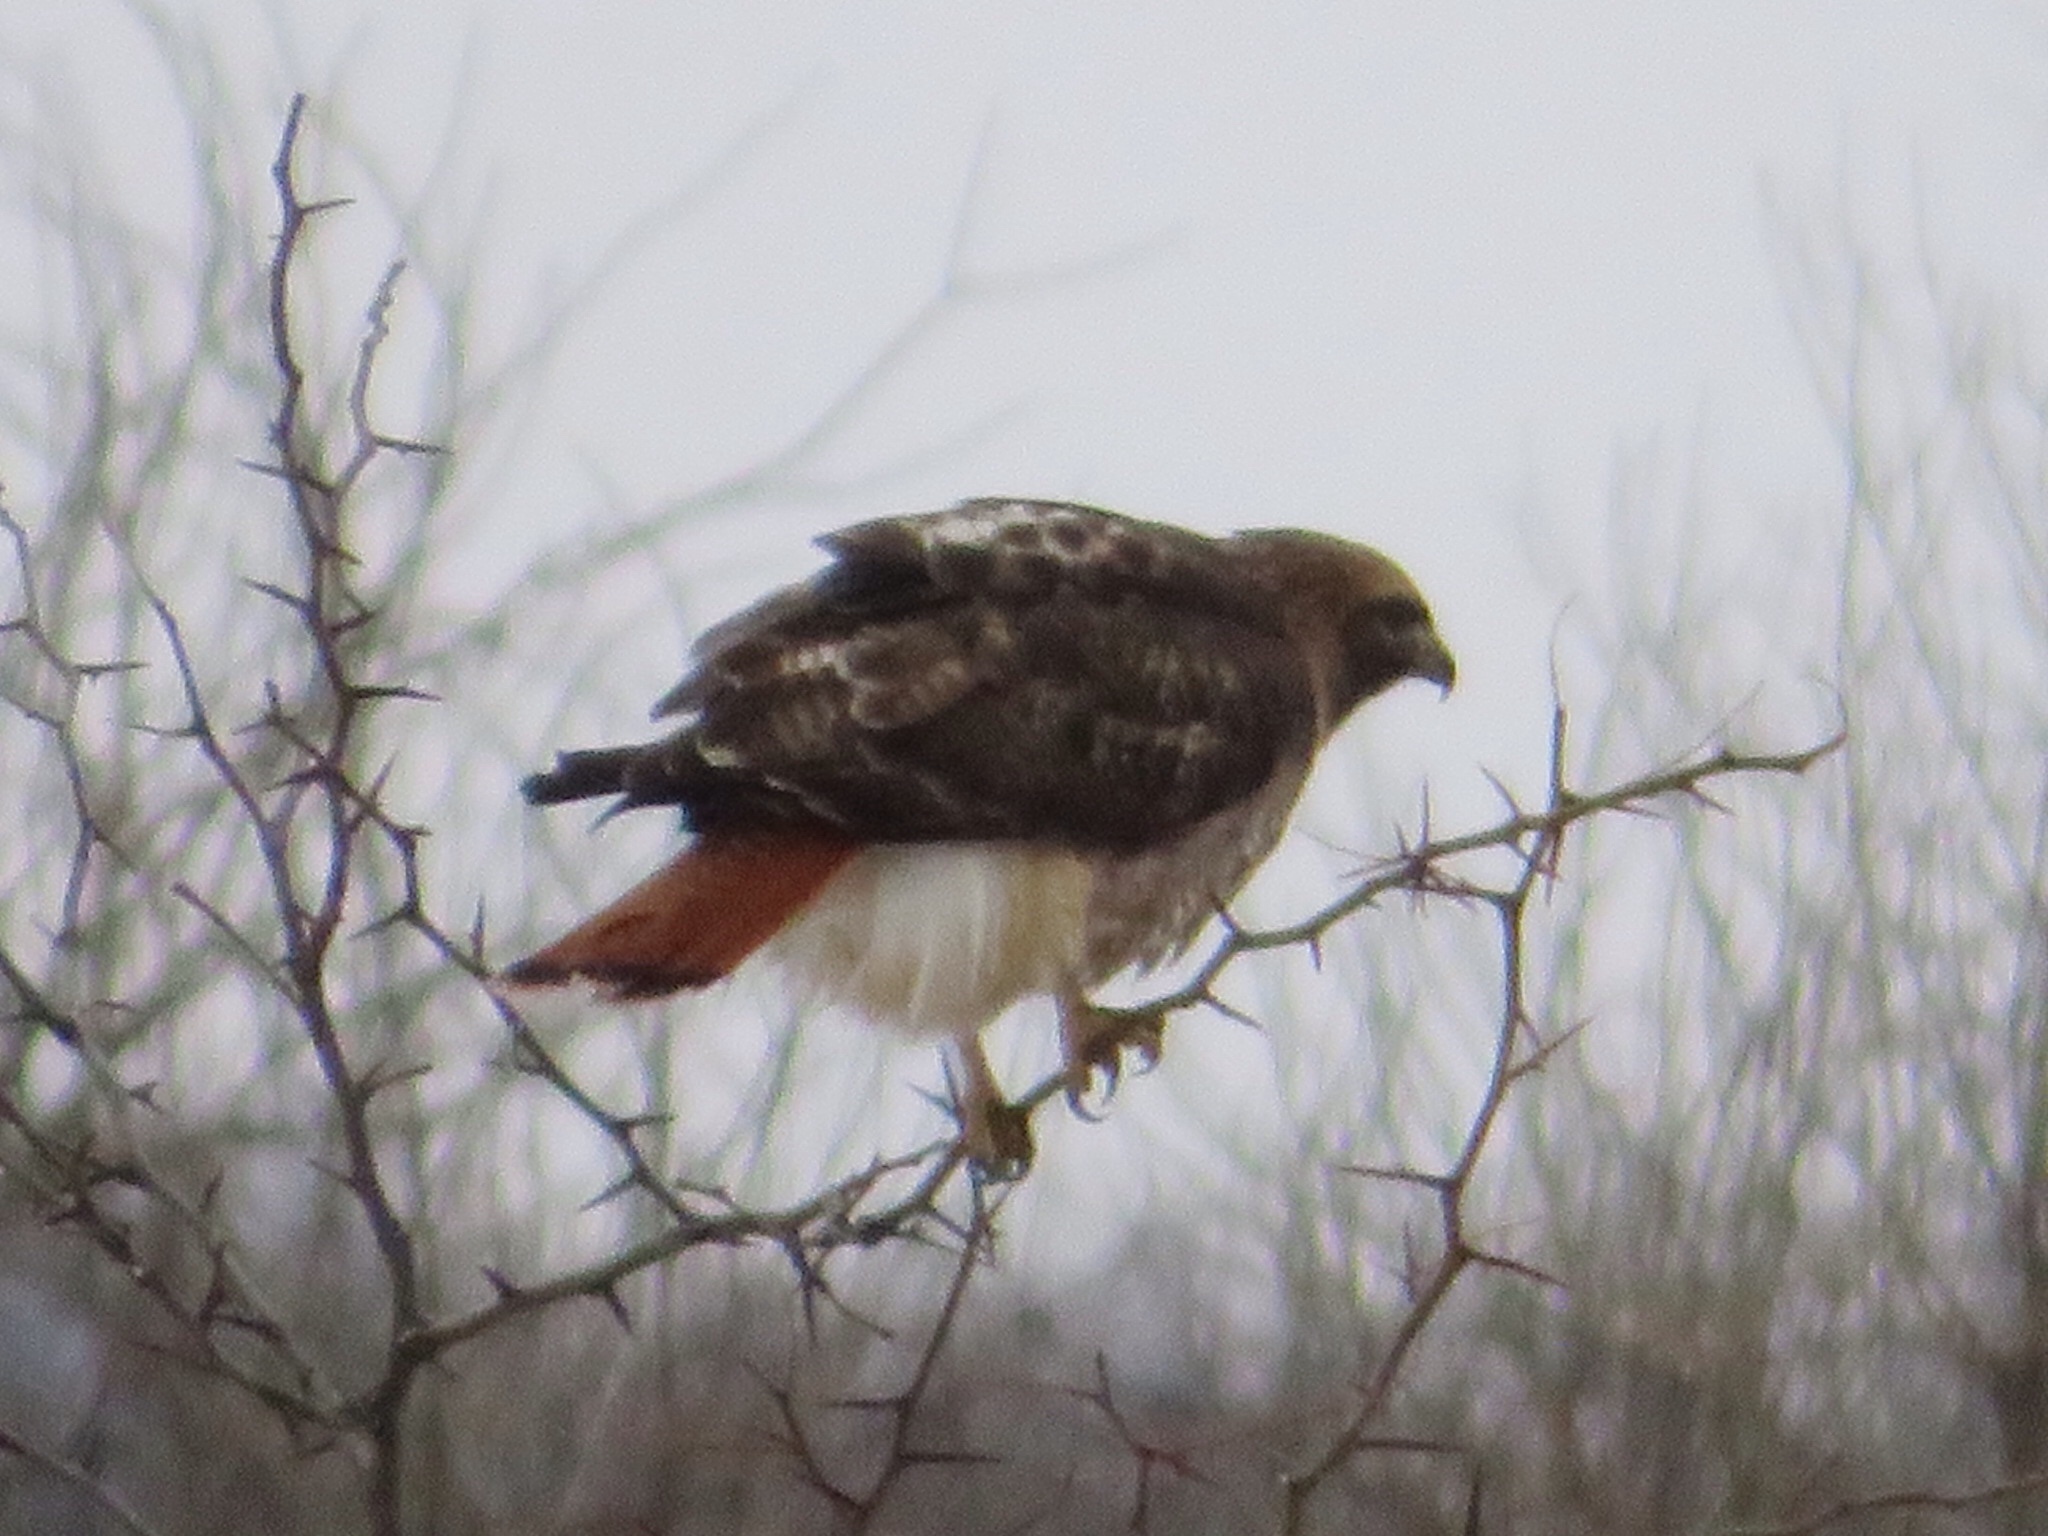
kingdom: Animalia
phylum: Chordata
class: Aves
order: Accipitriformes
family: Accipitridae
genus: Buteo
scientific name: Buteo jamaicensis
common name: Red-tailed hawk
